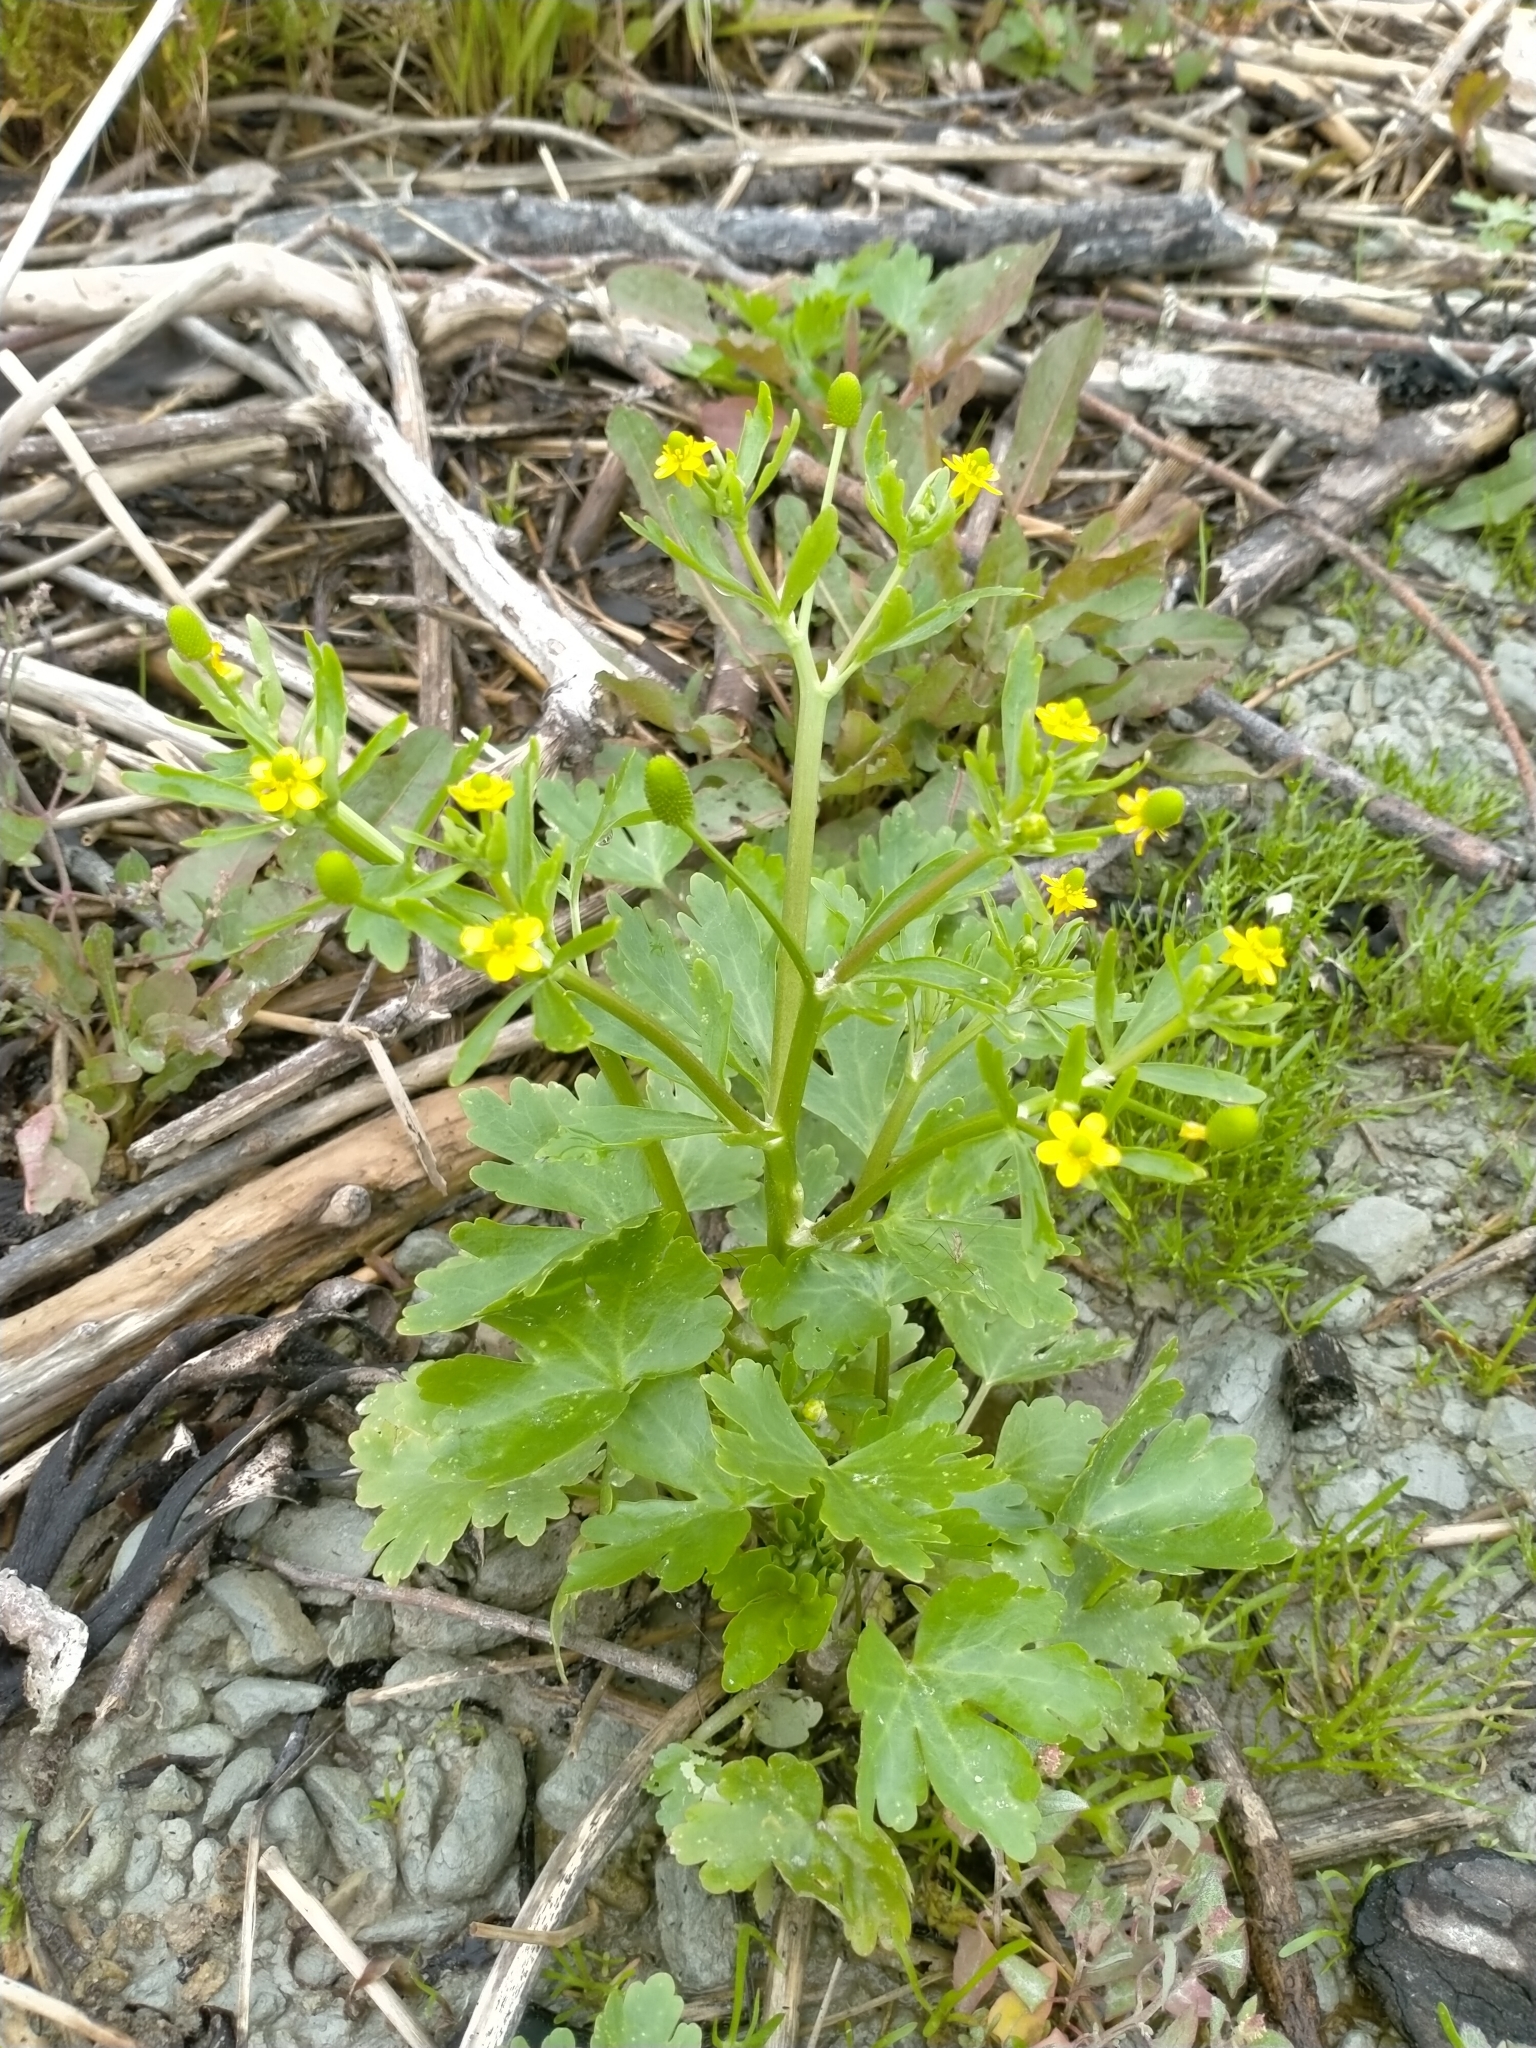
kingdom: Plantae
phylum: Tracheophyta
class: Magnoliopsida
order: Ranunculales
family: Ranunculaceae
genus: Ranunculus
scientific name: Ranunculus sceleratus
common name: Celery-leaved buttercup
